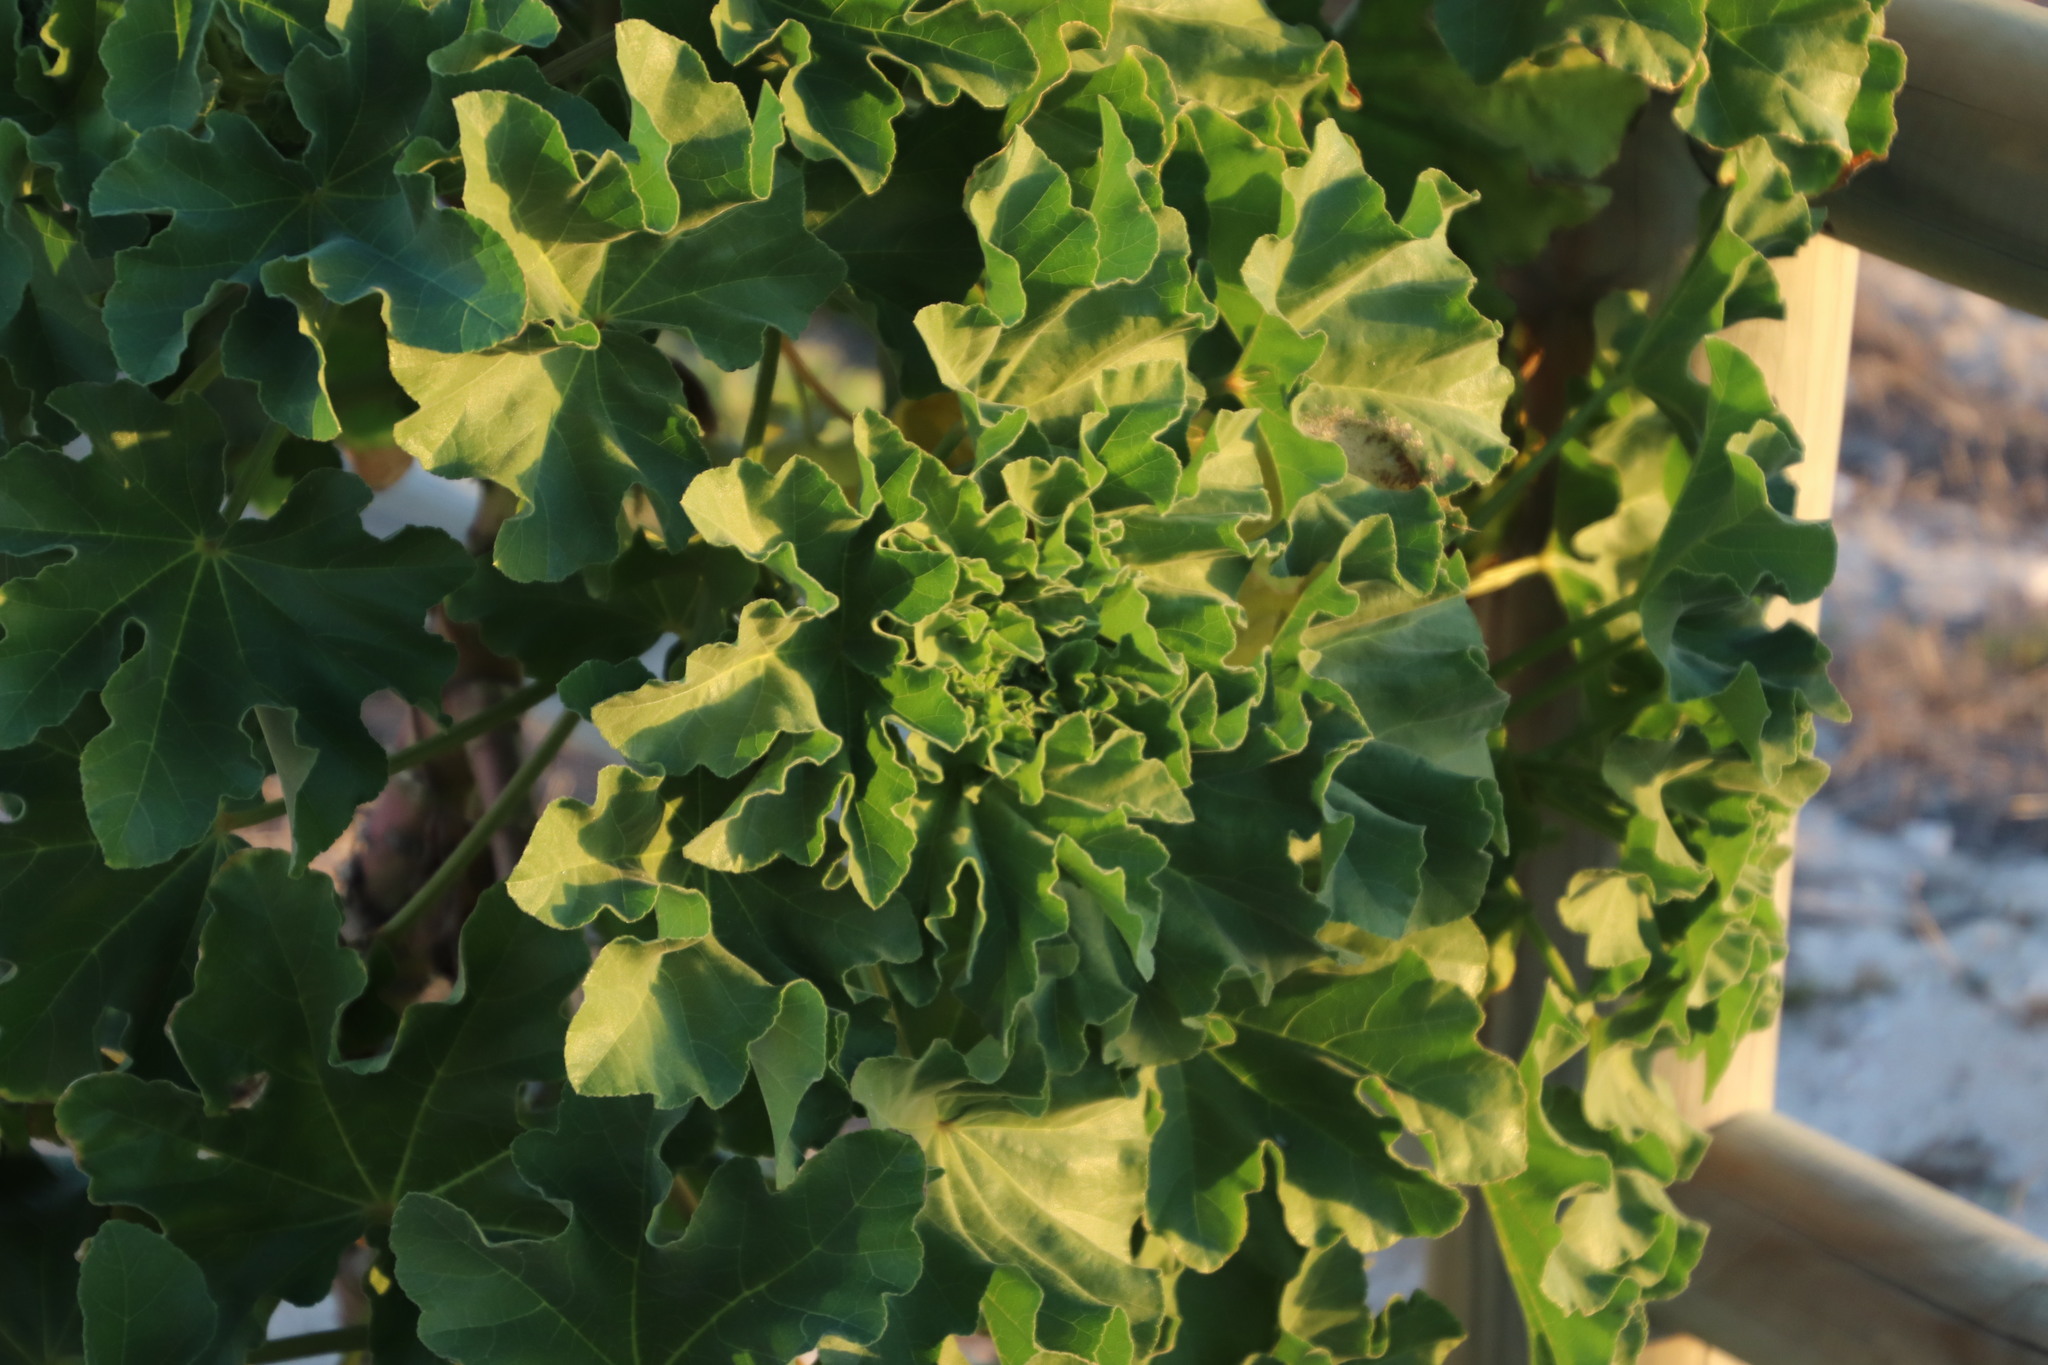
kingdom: Plantae
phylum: Tracheophyta
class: Magnoliopsida
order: Malvales
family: Malvaceae
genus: Malva
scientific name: Malva arborea
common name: Tree mallow
